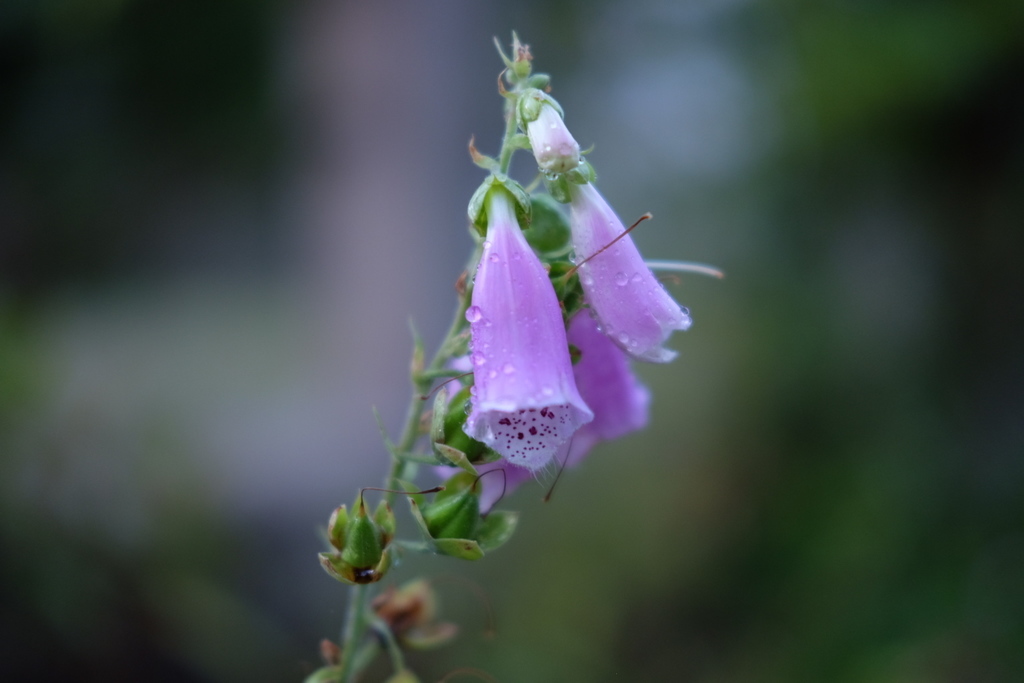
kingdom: Plantae
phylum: Tracheophyta
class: Magnoliopsida
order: Lamiales
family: Plantaginaceae
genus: Digitalis
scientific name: Digitalis purpurea
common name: Foxglove
